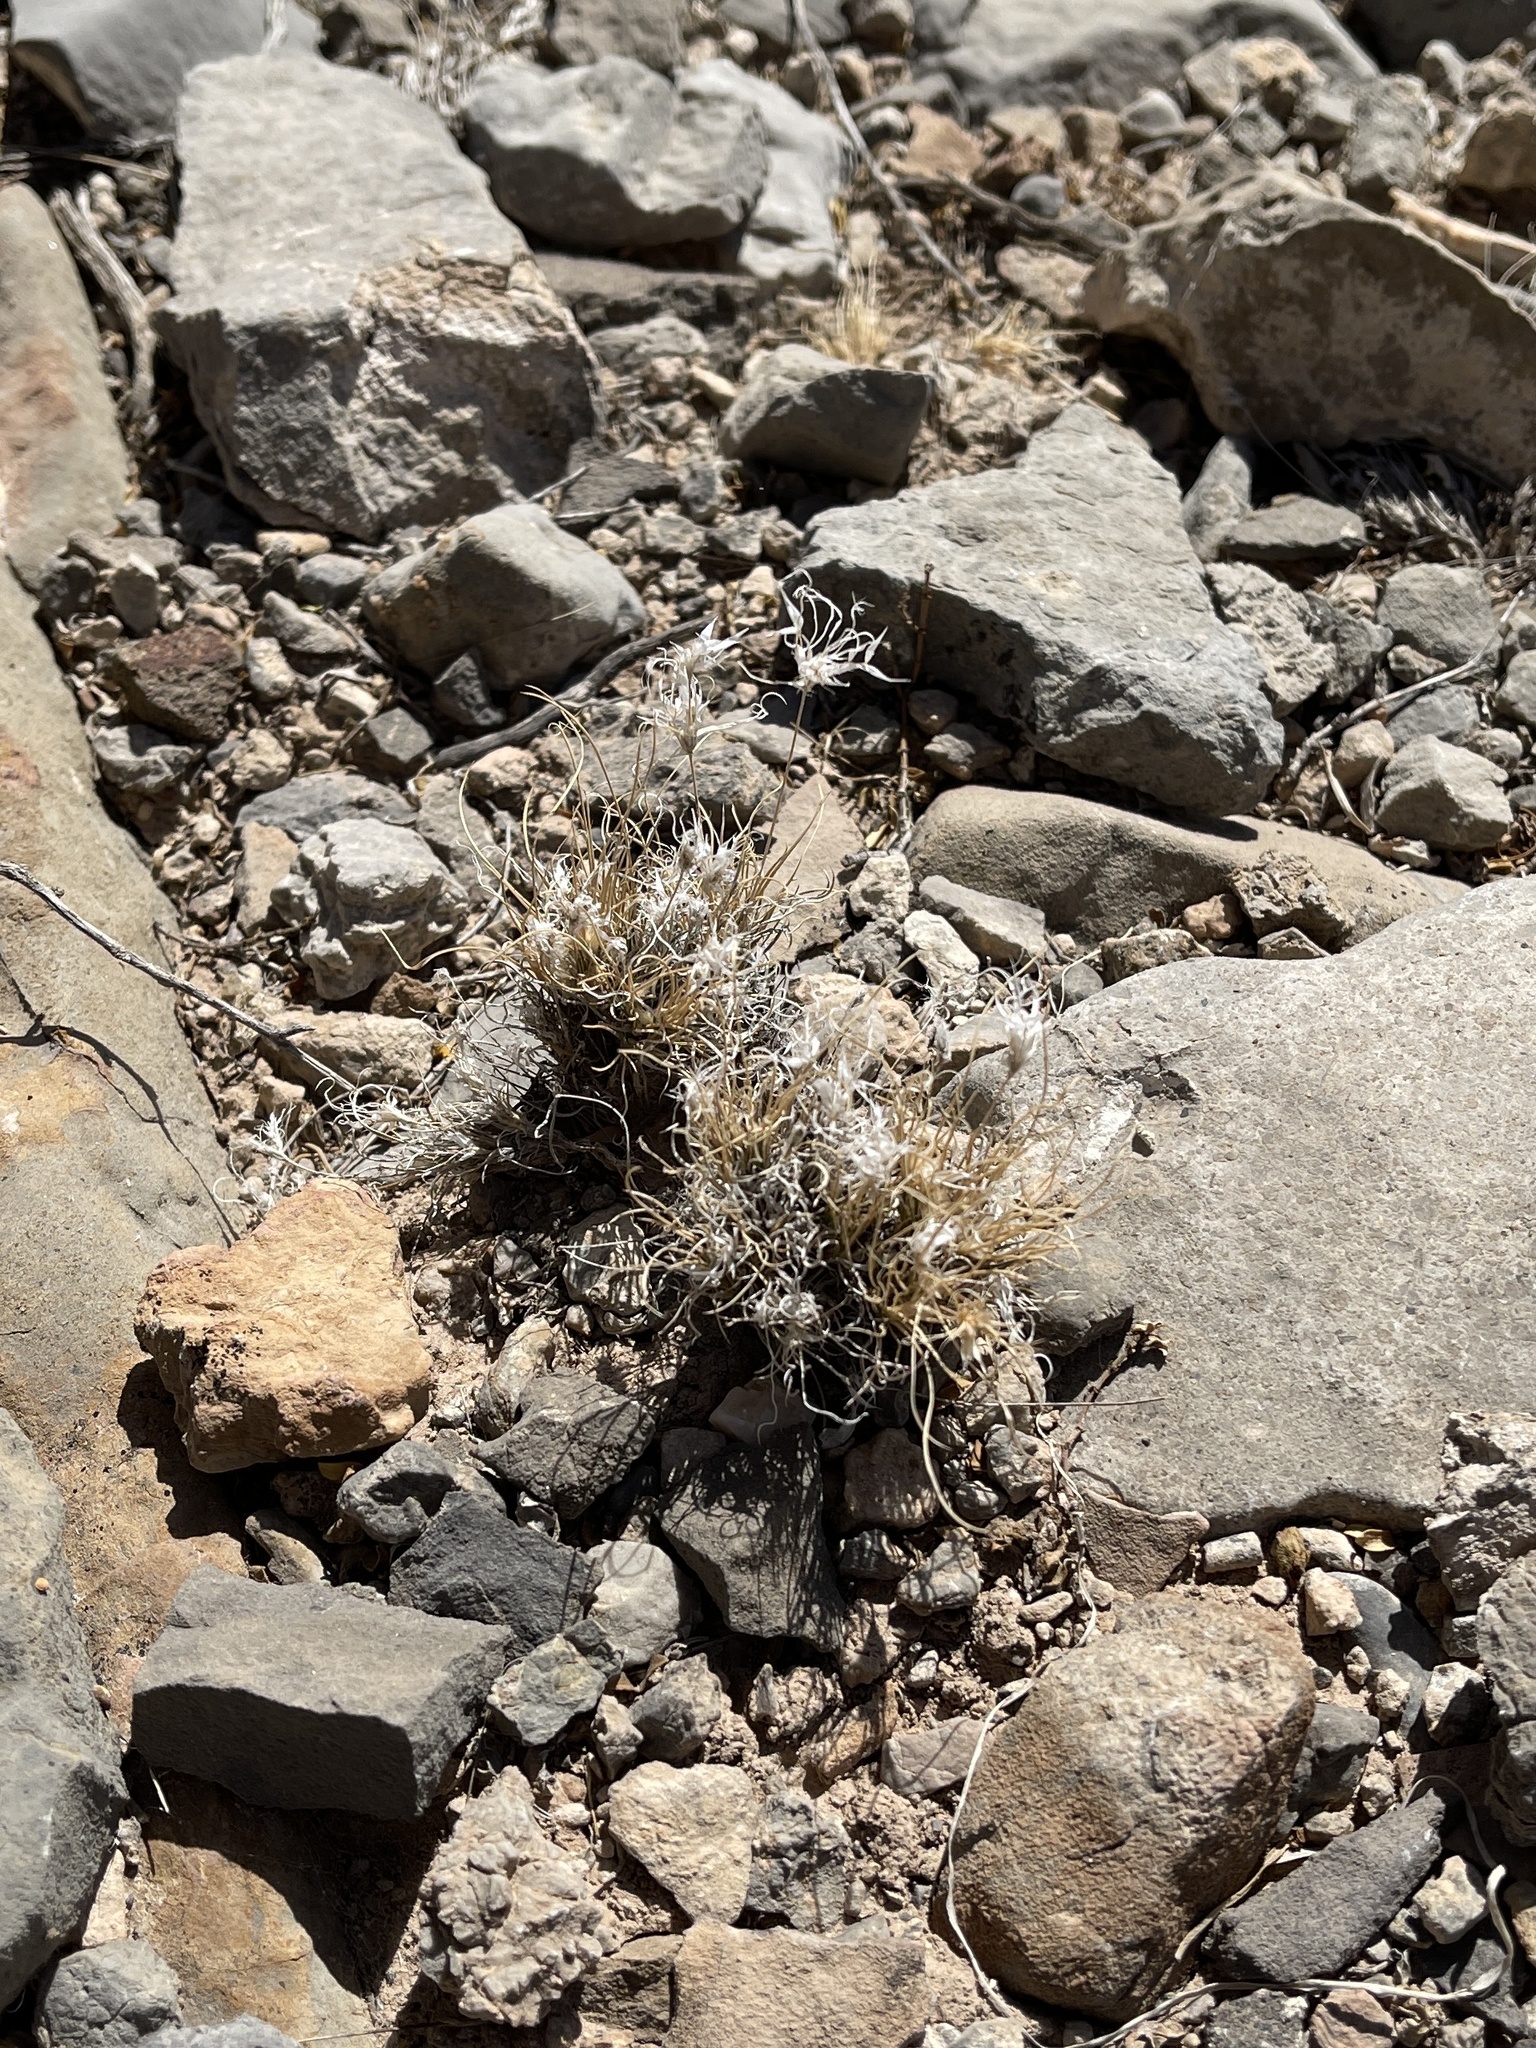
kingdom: Plantae
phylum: Tracheophyta
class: Liliopsida
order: Poales
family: Poaceae
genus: Dasyochloa
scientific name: Dasyochloa pulchella
